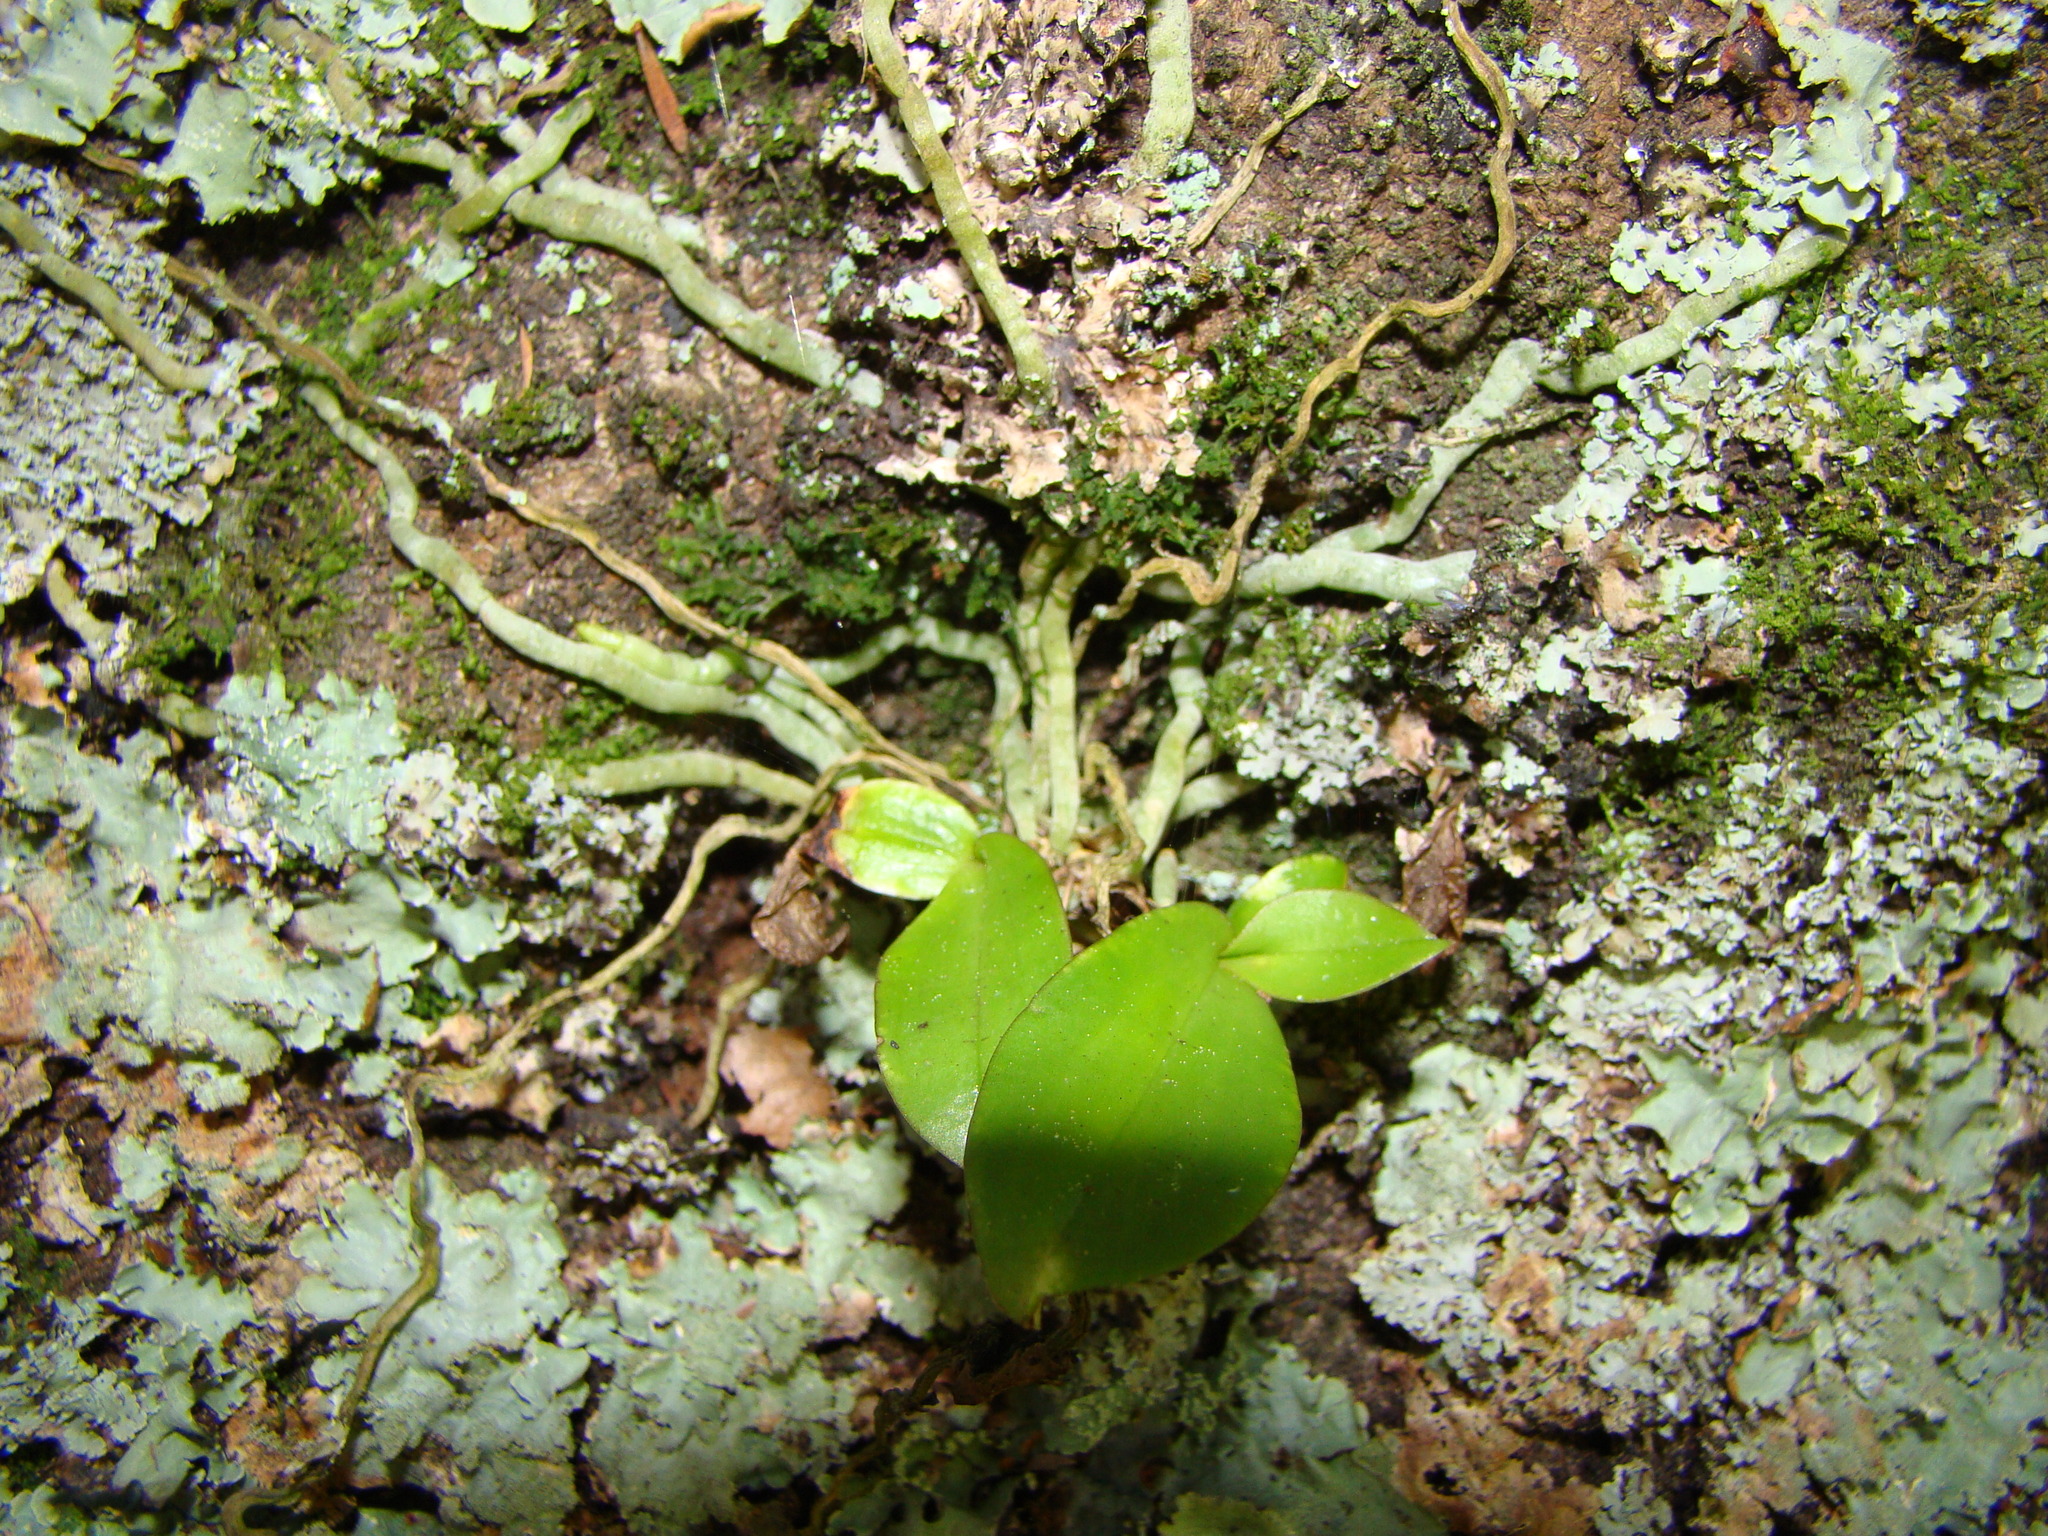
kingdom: Plantae
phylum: Tracheophyta
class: Liliopsida
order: Asparagales
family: Orchidaceae
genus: Drymoanthus
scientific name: Drymoanthus adversus
